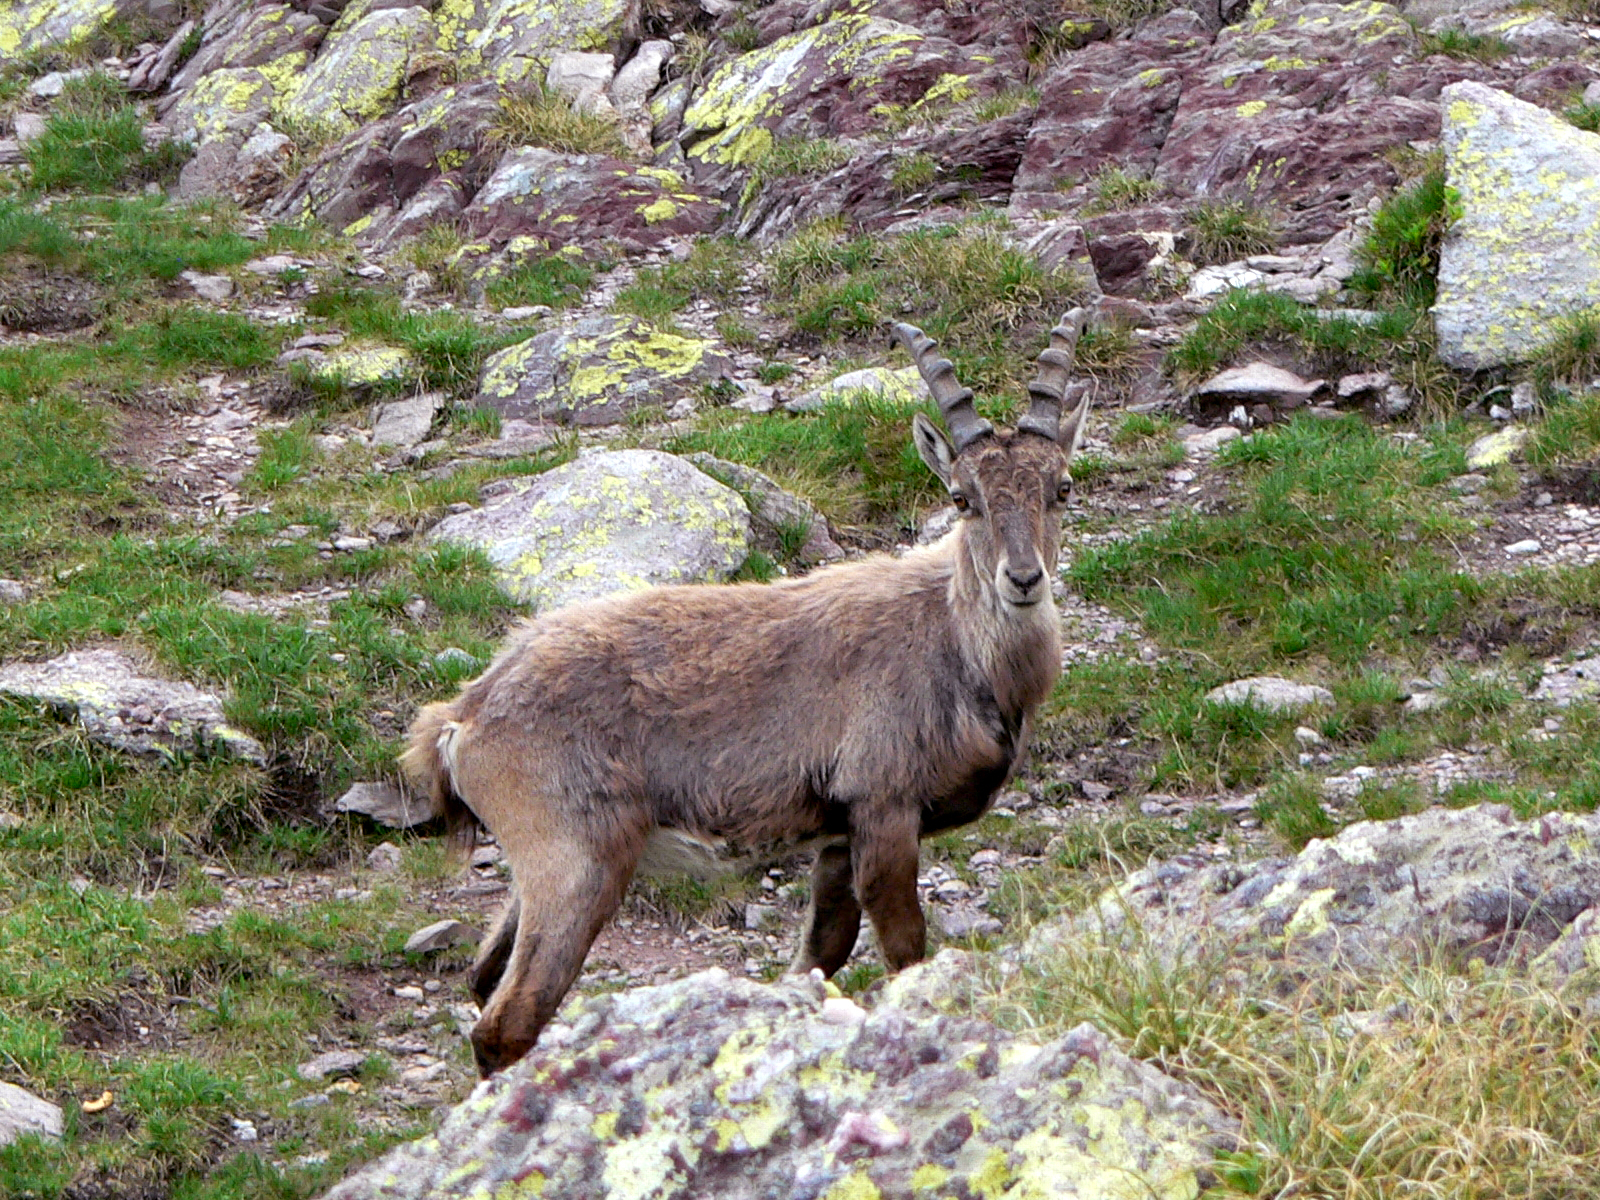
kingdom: Animalia
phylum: Chordata
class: Mammalia
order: Artiodactyla
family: Bovidae
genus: Capra
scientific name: Capra ibex
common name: Alpine ibex
